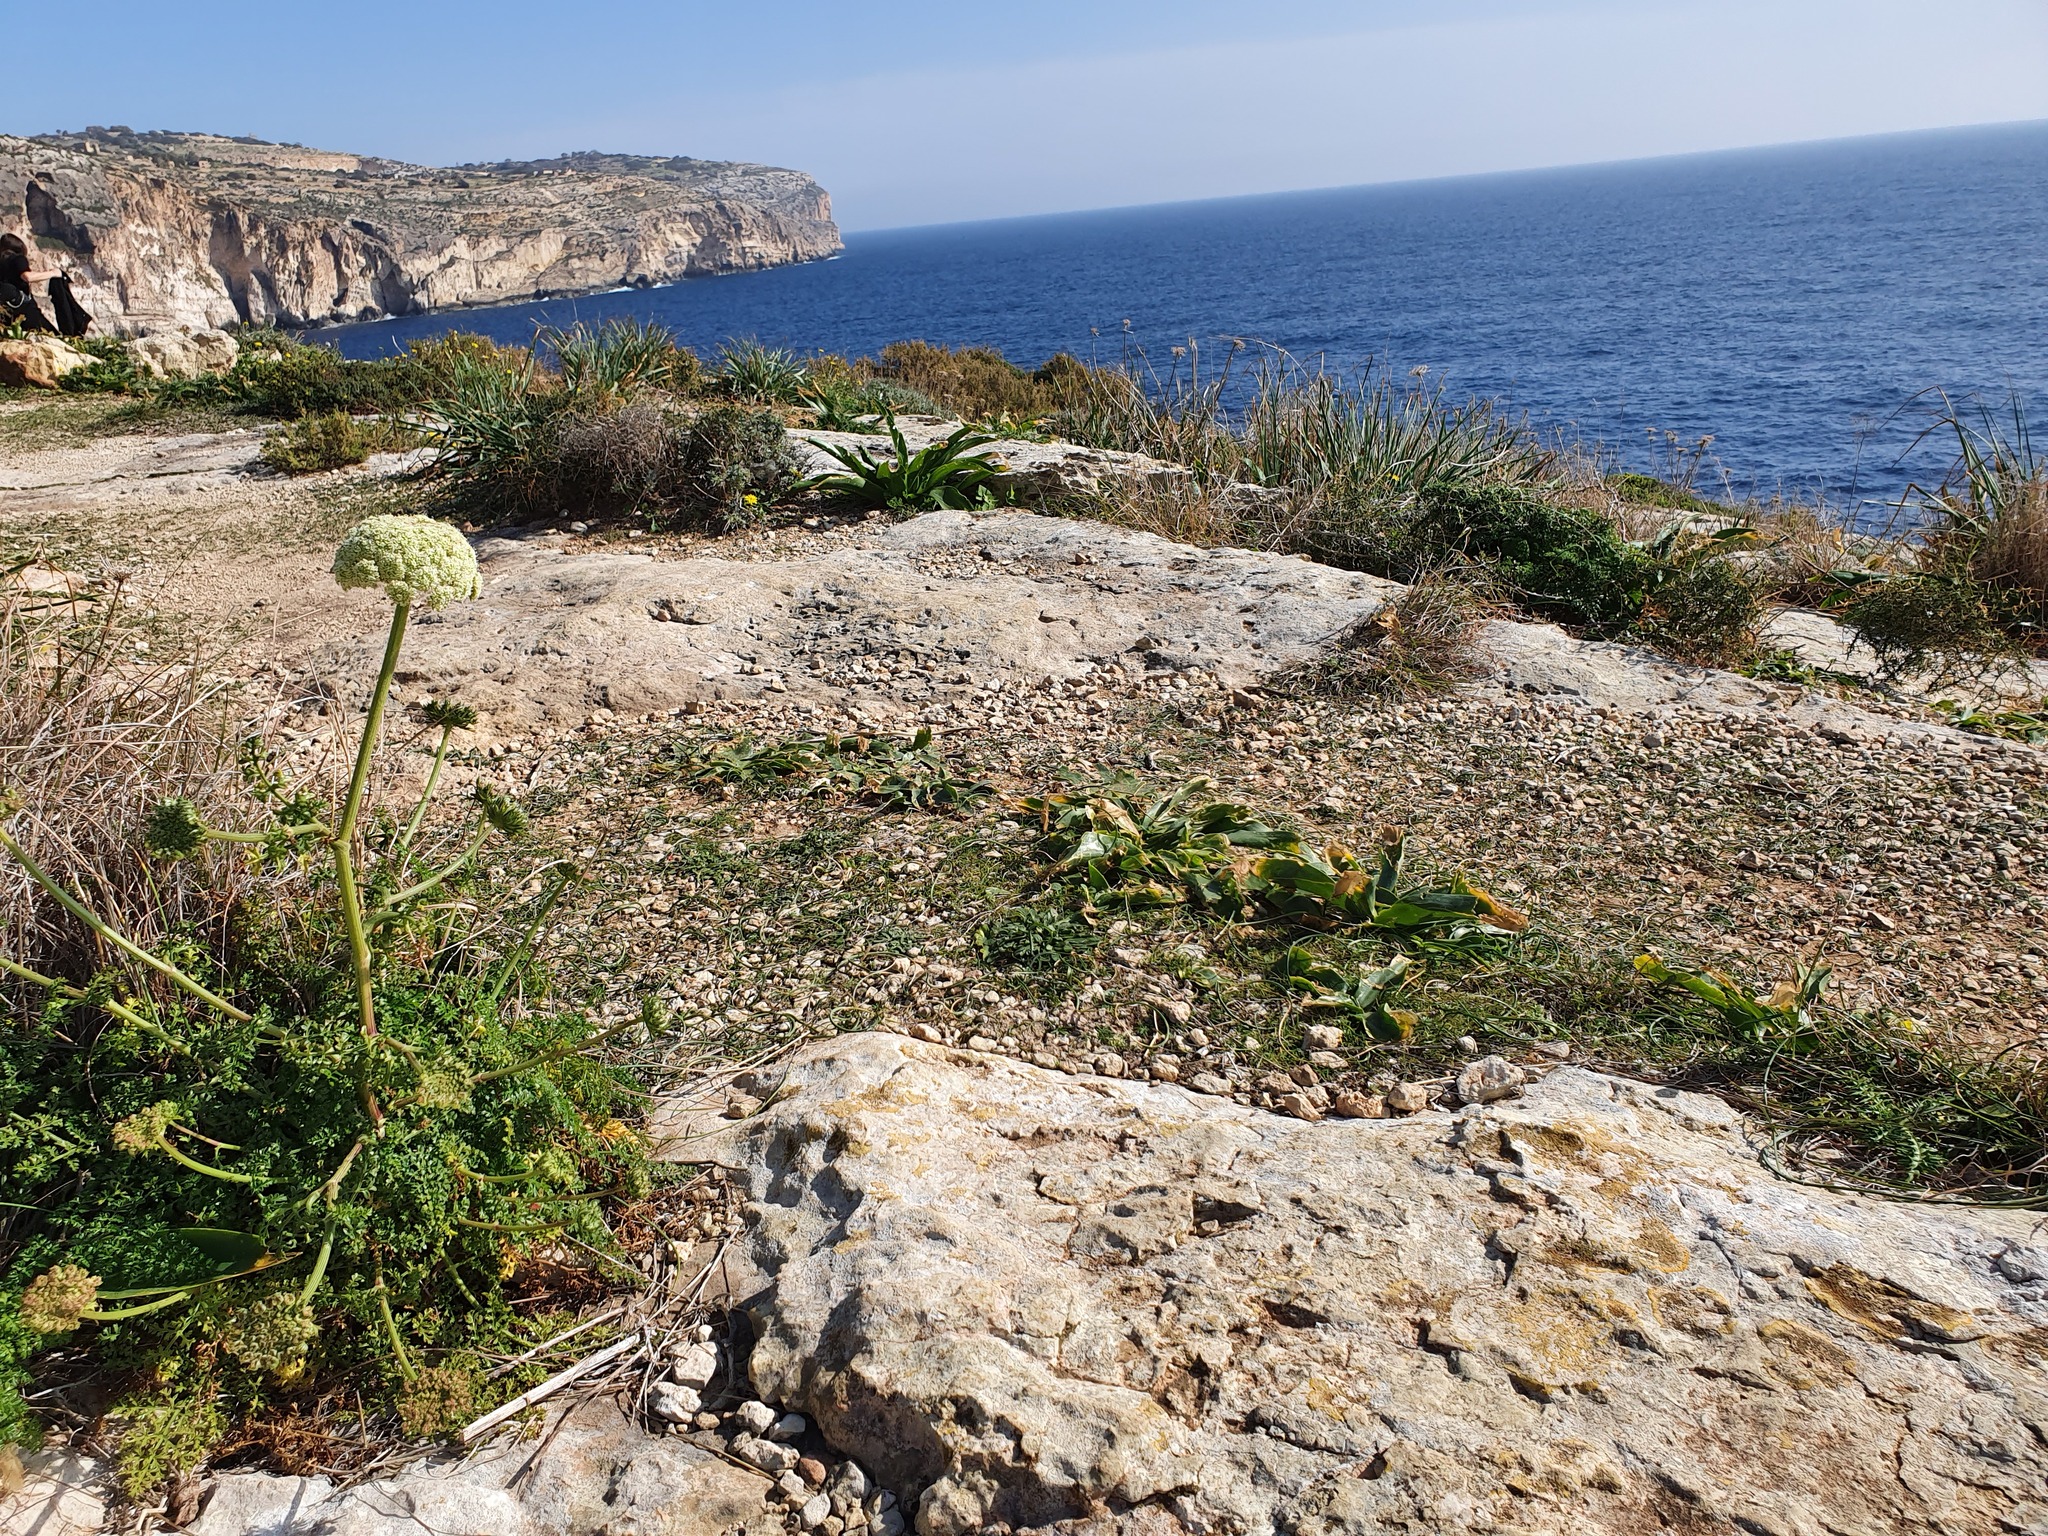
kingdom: Plantae
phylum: Tracheophyta
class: Magnoliopsida
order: Apiales
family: Apiaceae
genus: Daucus
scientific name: Daucus carota
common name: Wild carrot
